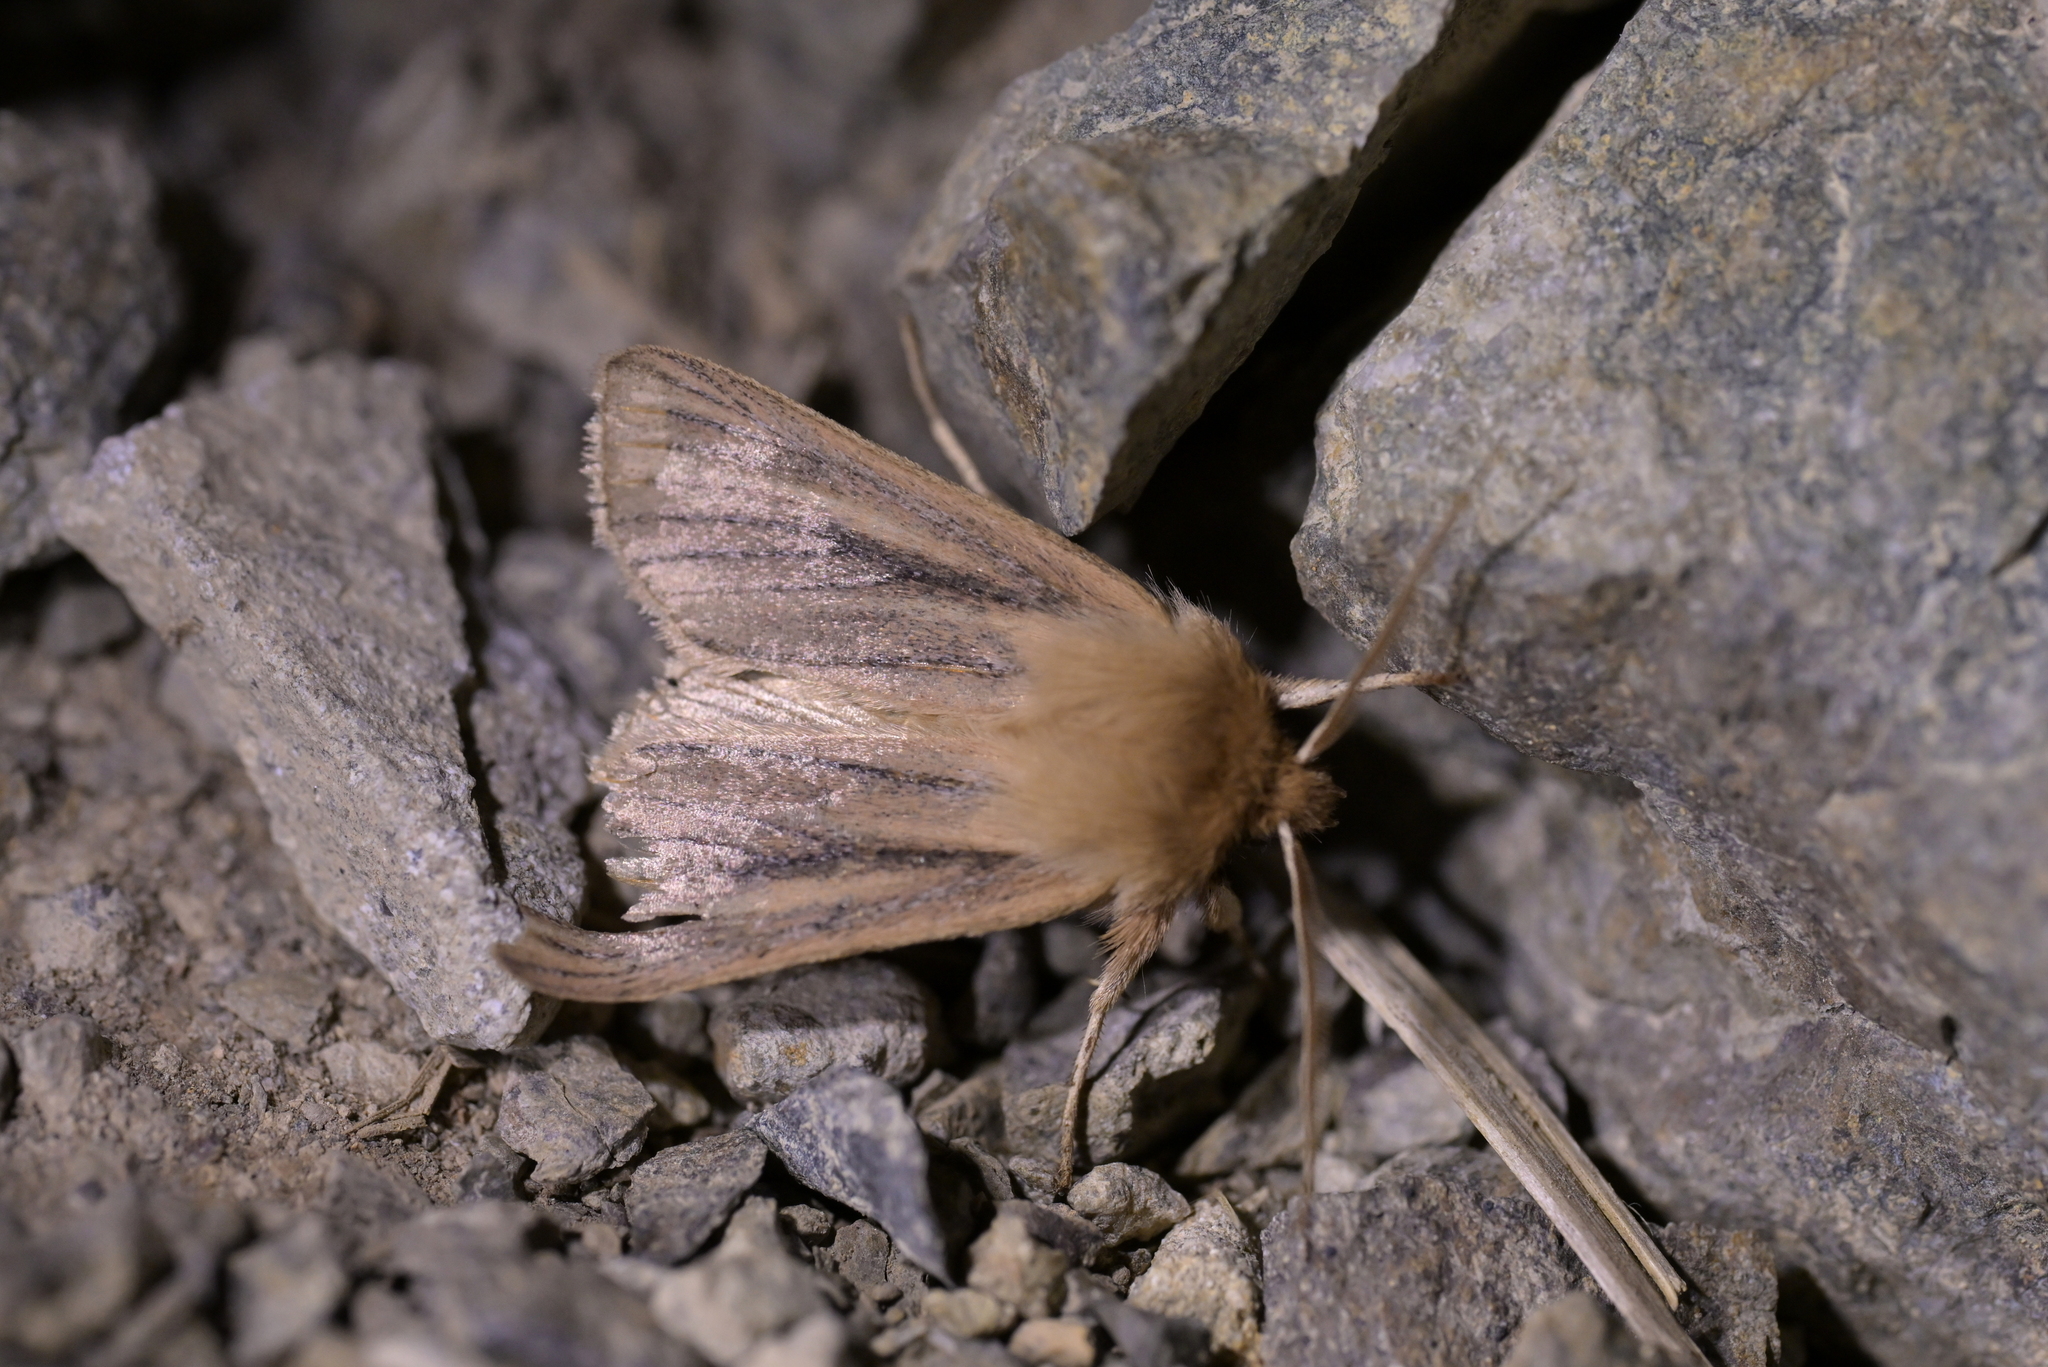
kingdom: Animalia
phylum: Arthropoda
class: Insecta
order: Lepidoptera
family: Noctuidae
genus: Ichneutica
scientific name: Ichneutica
